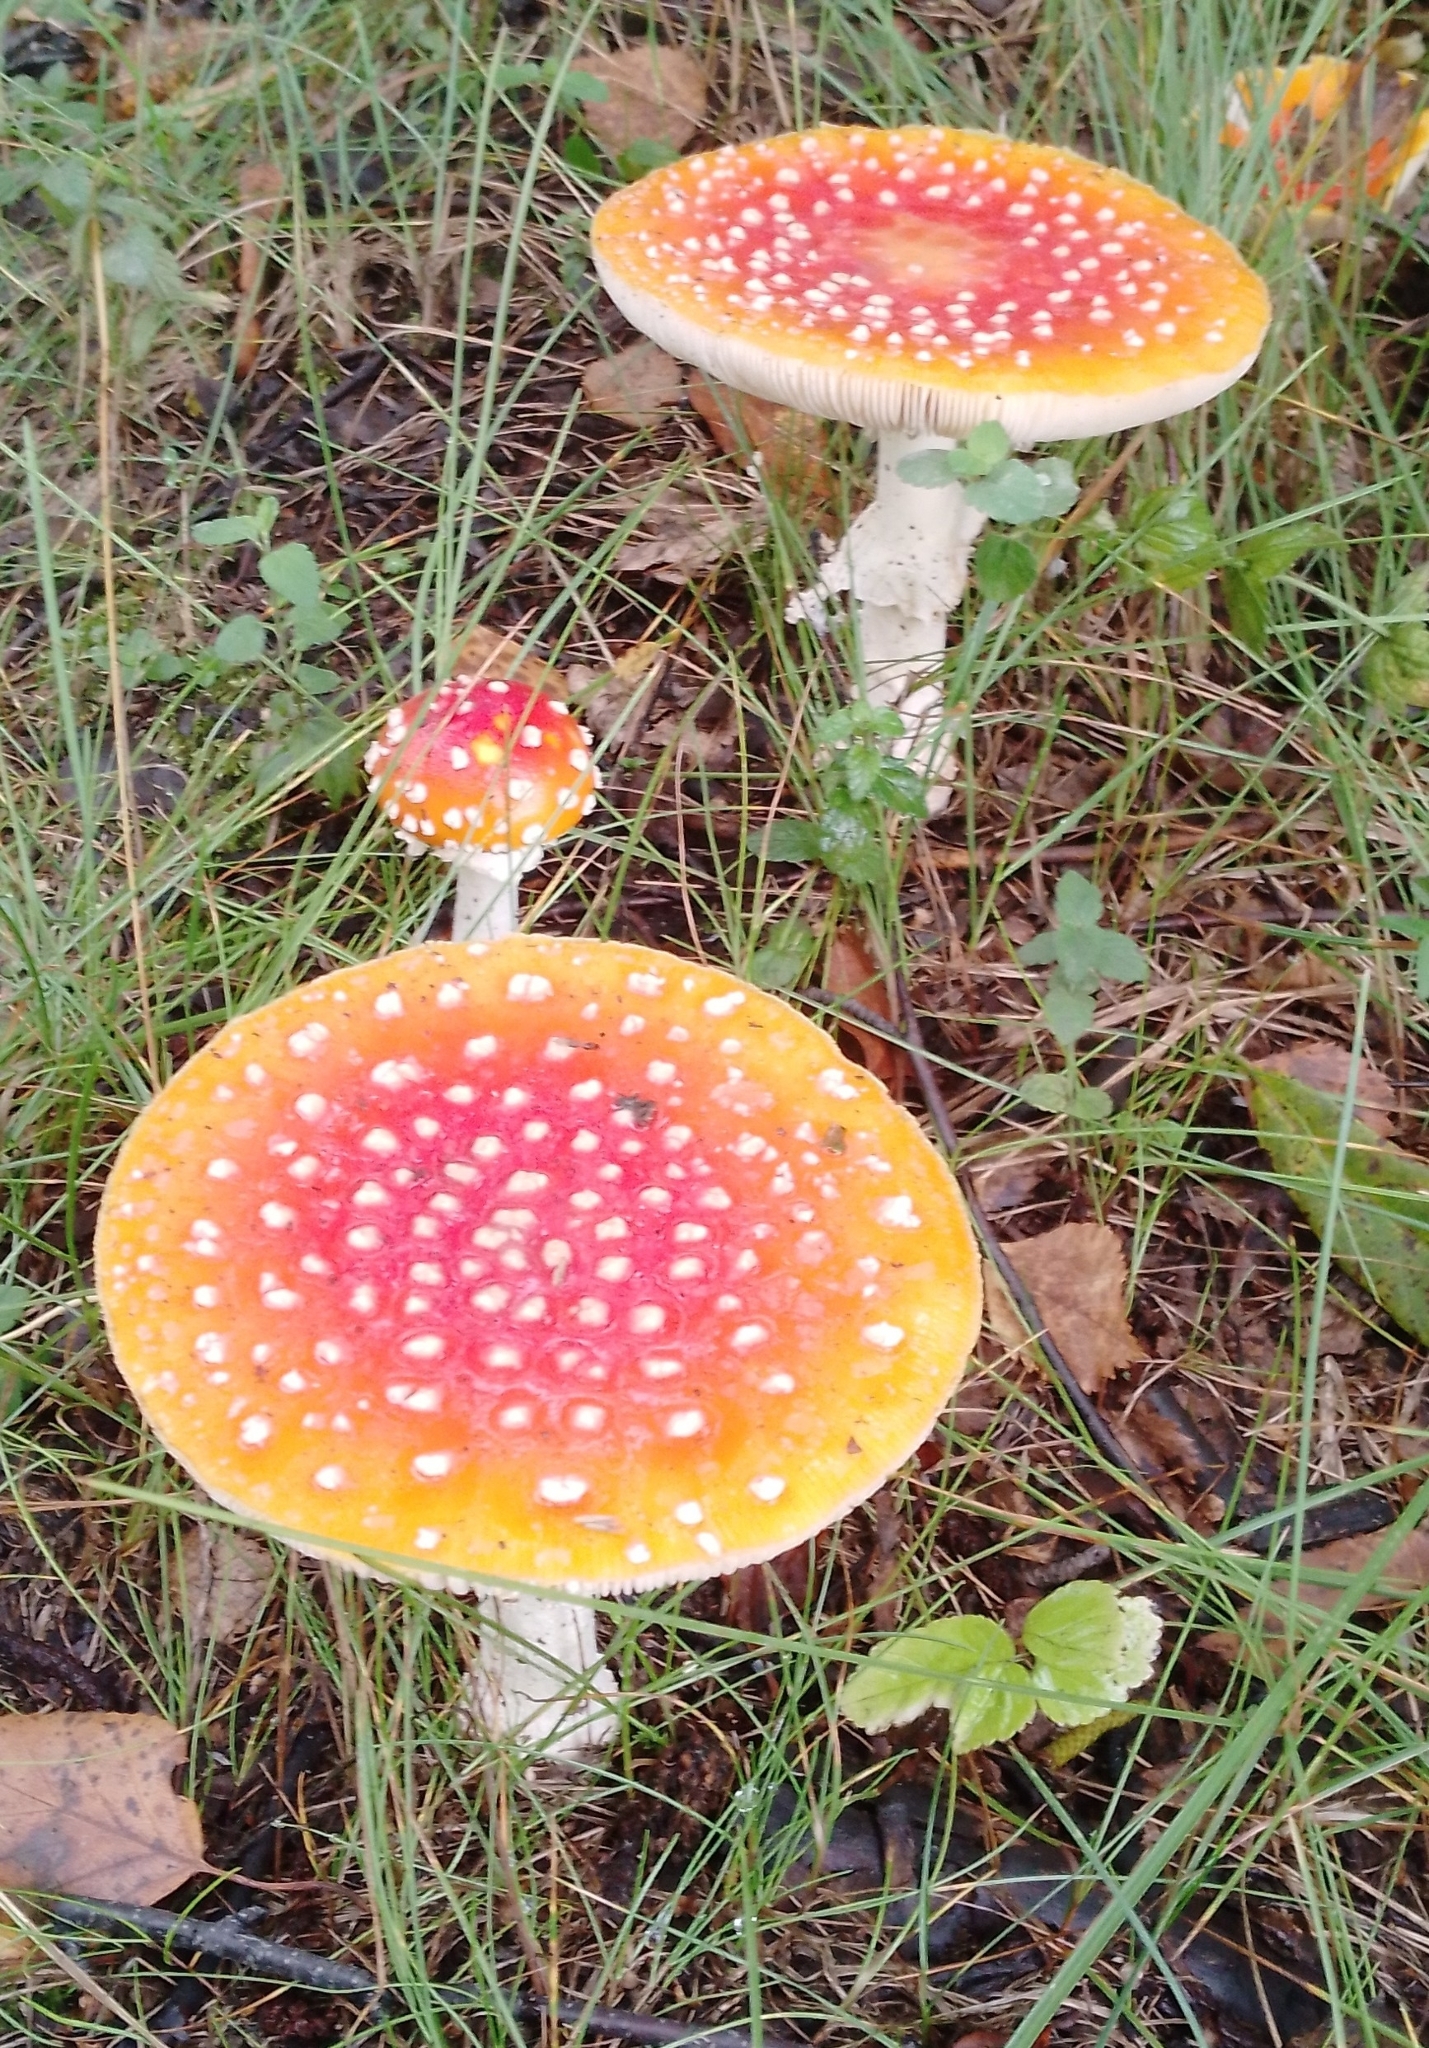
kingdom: Fungi
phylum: Basidiomycota
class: Agaricomycetes
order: Agaricales
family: Amanitaceae
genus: Amanita
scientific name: Amanita muscaria
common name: Fly agaric
